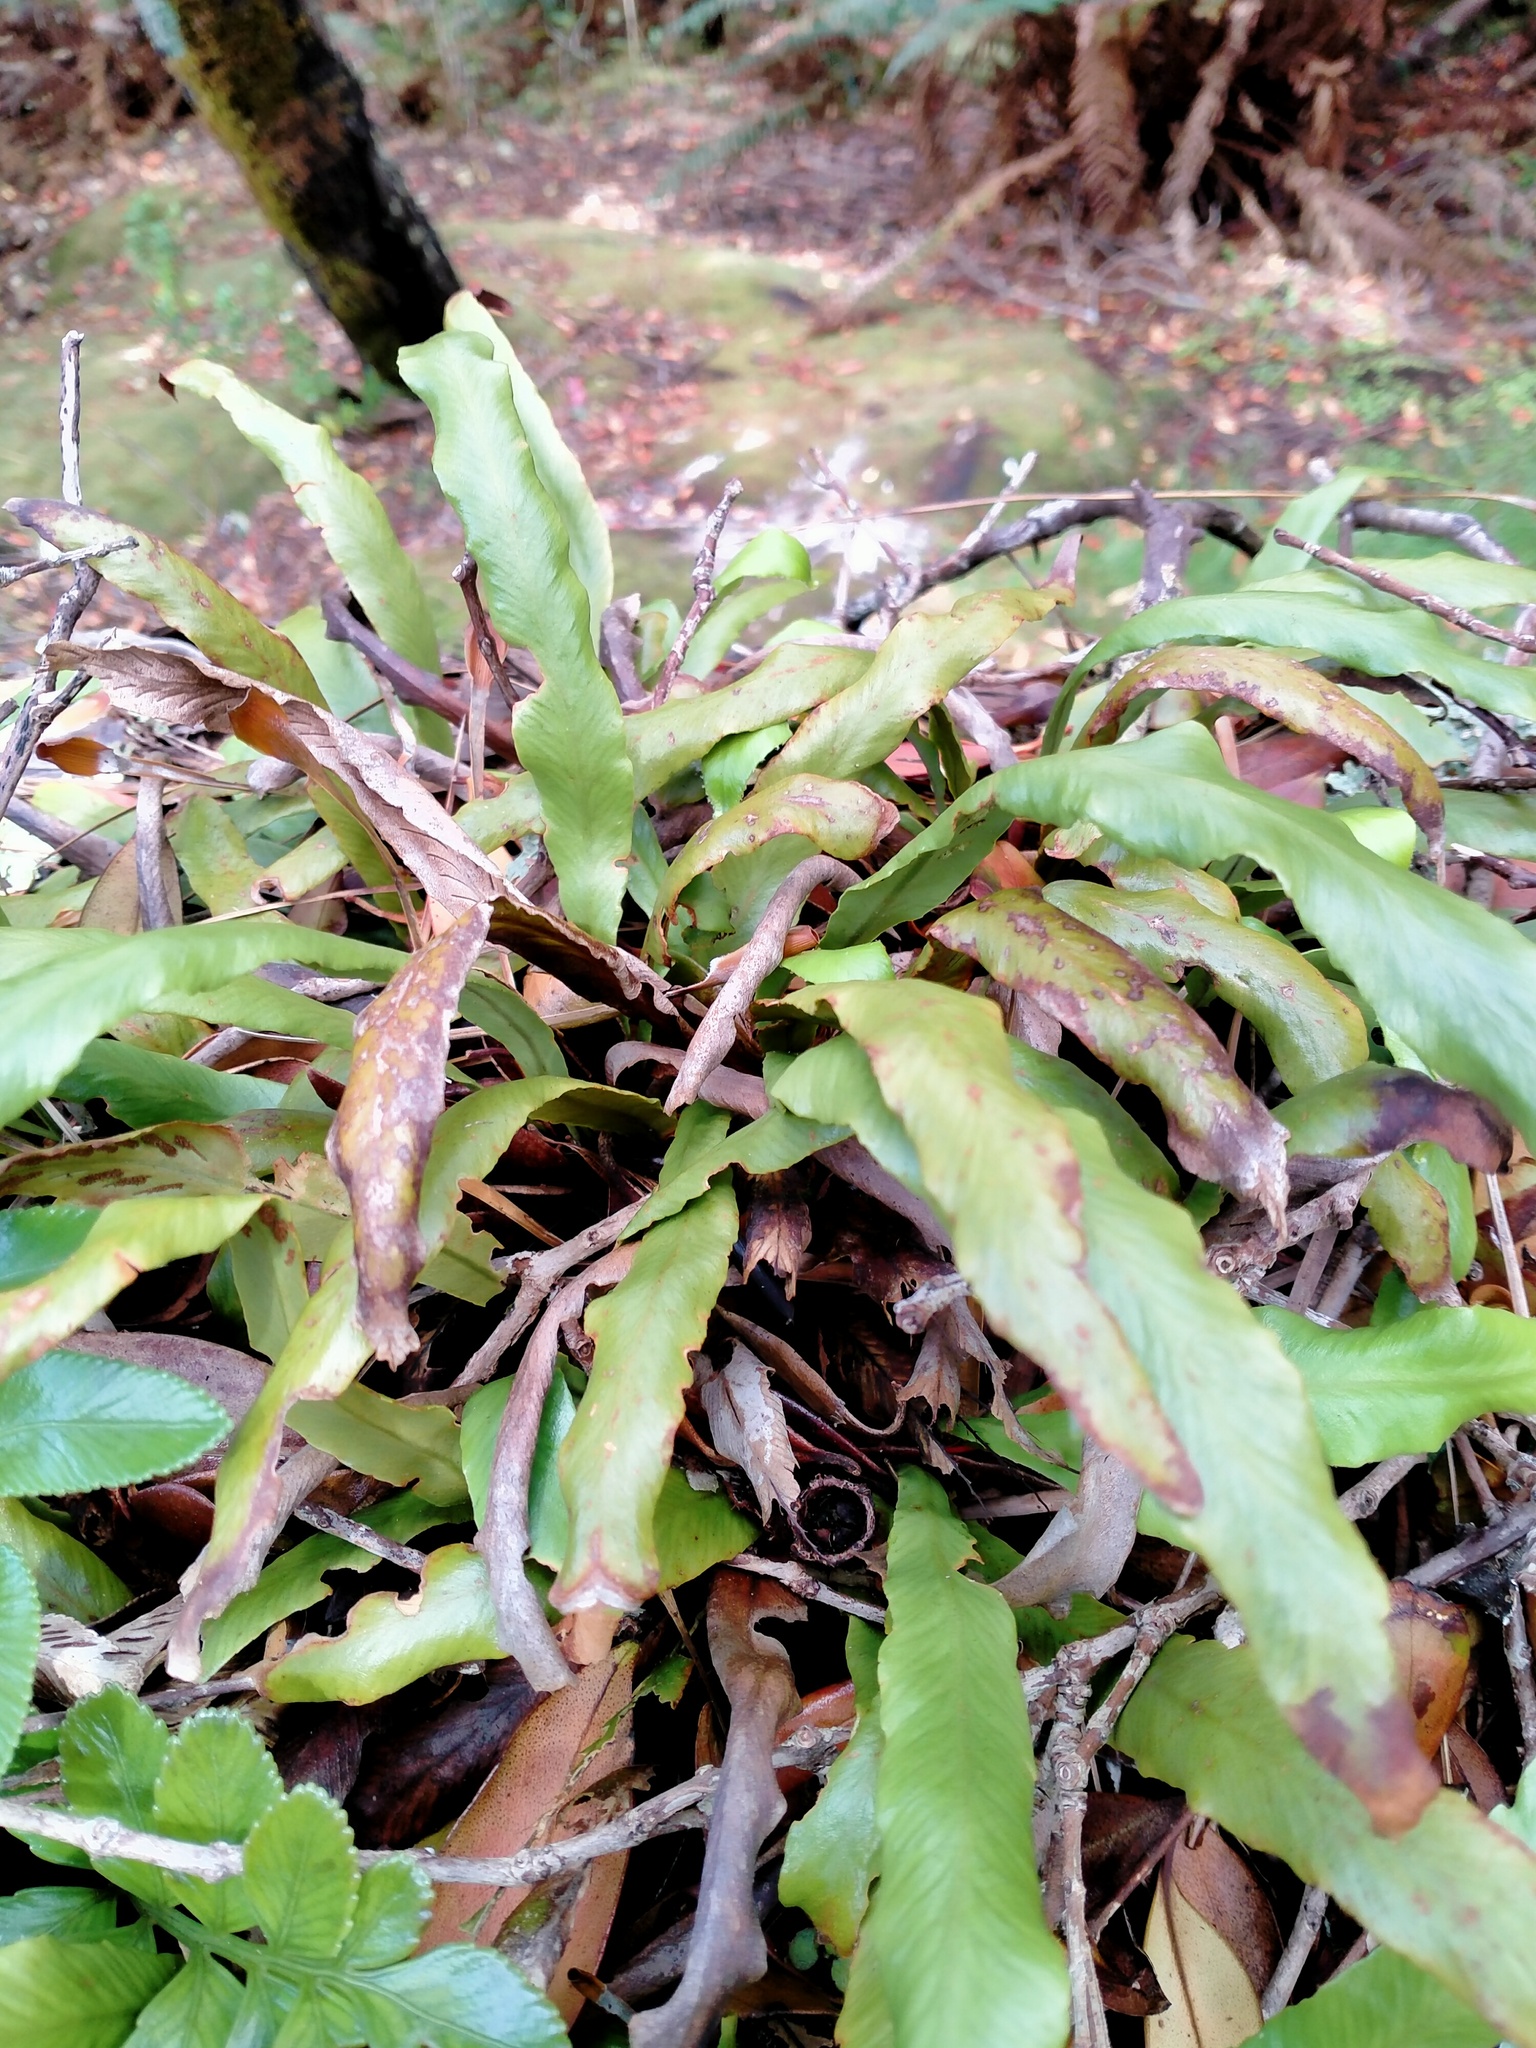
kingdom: Plantae
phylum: Tracheophyta
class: Polypodiopsida
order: Polypodiales
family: Polypodiaceae
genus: Notogrammitis
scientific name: Notogrammitis rigida
